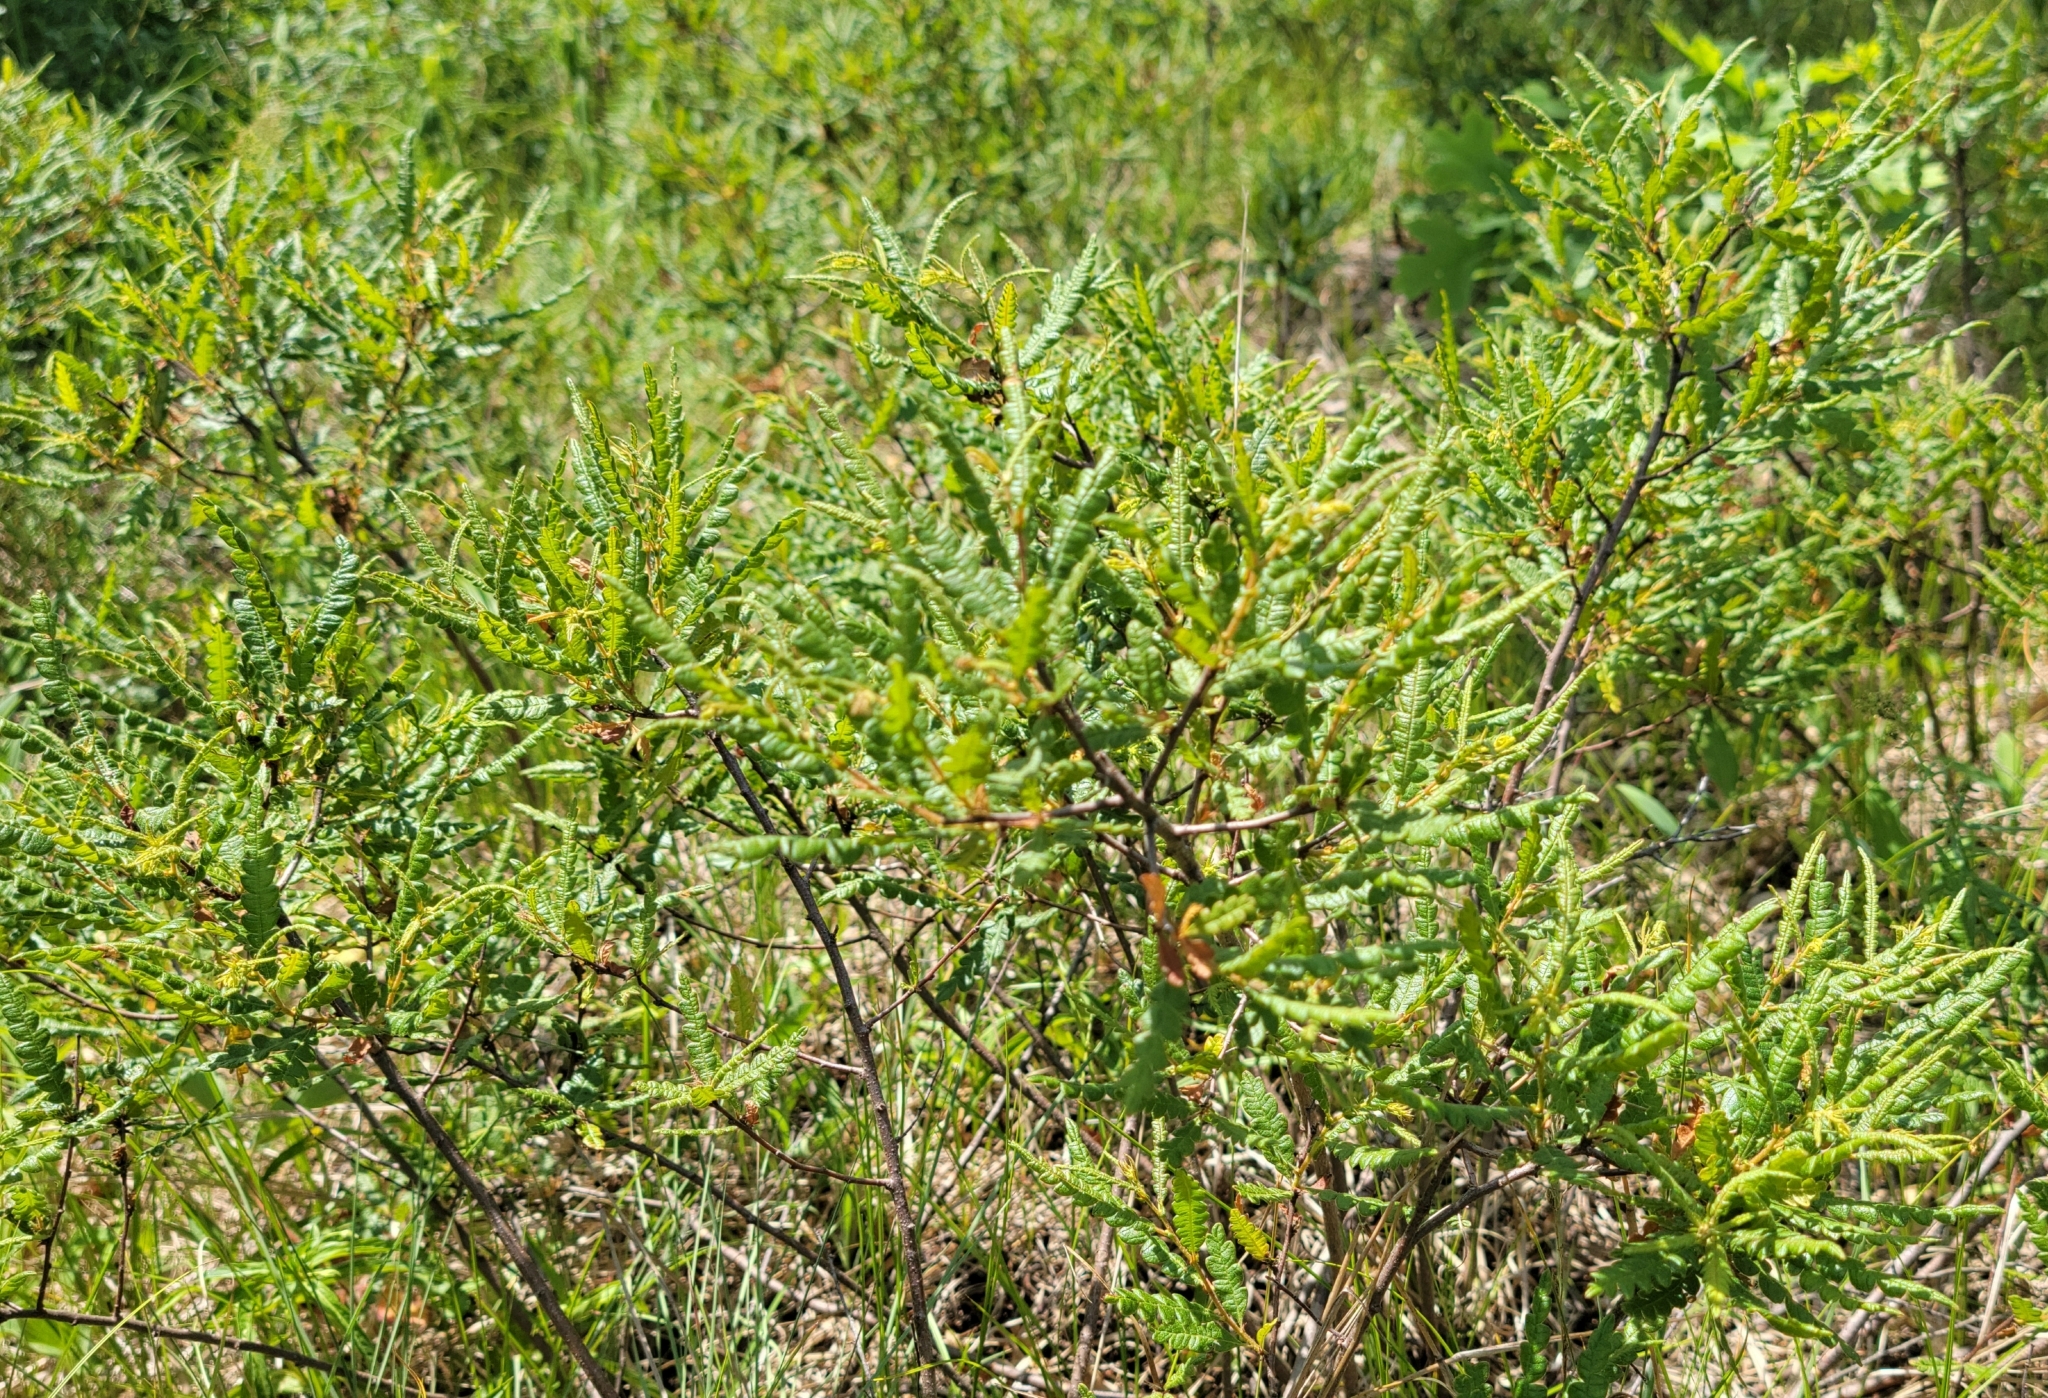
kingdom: Plantae
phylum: Tracheophyta
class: Magnoliopsida
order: Fagales
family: Myricaceae
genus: Comptonia
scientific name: Comptonia peregrina
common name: Sweet-fern
